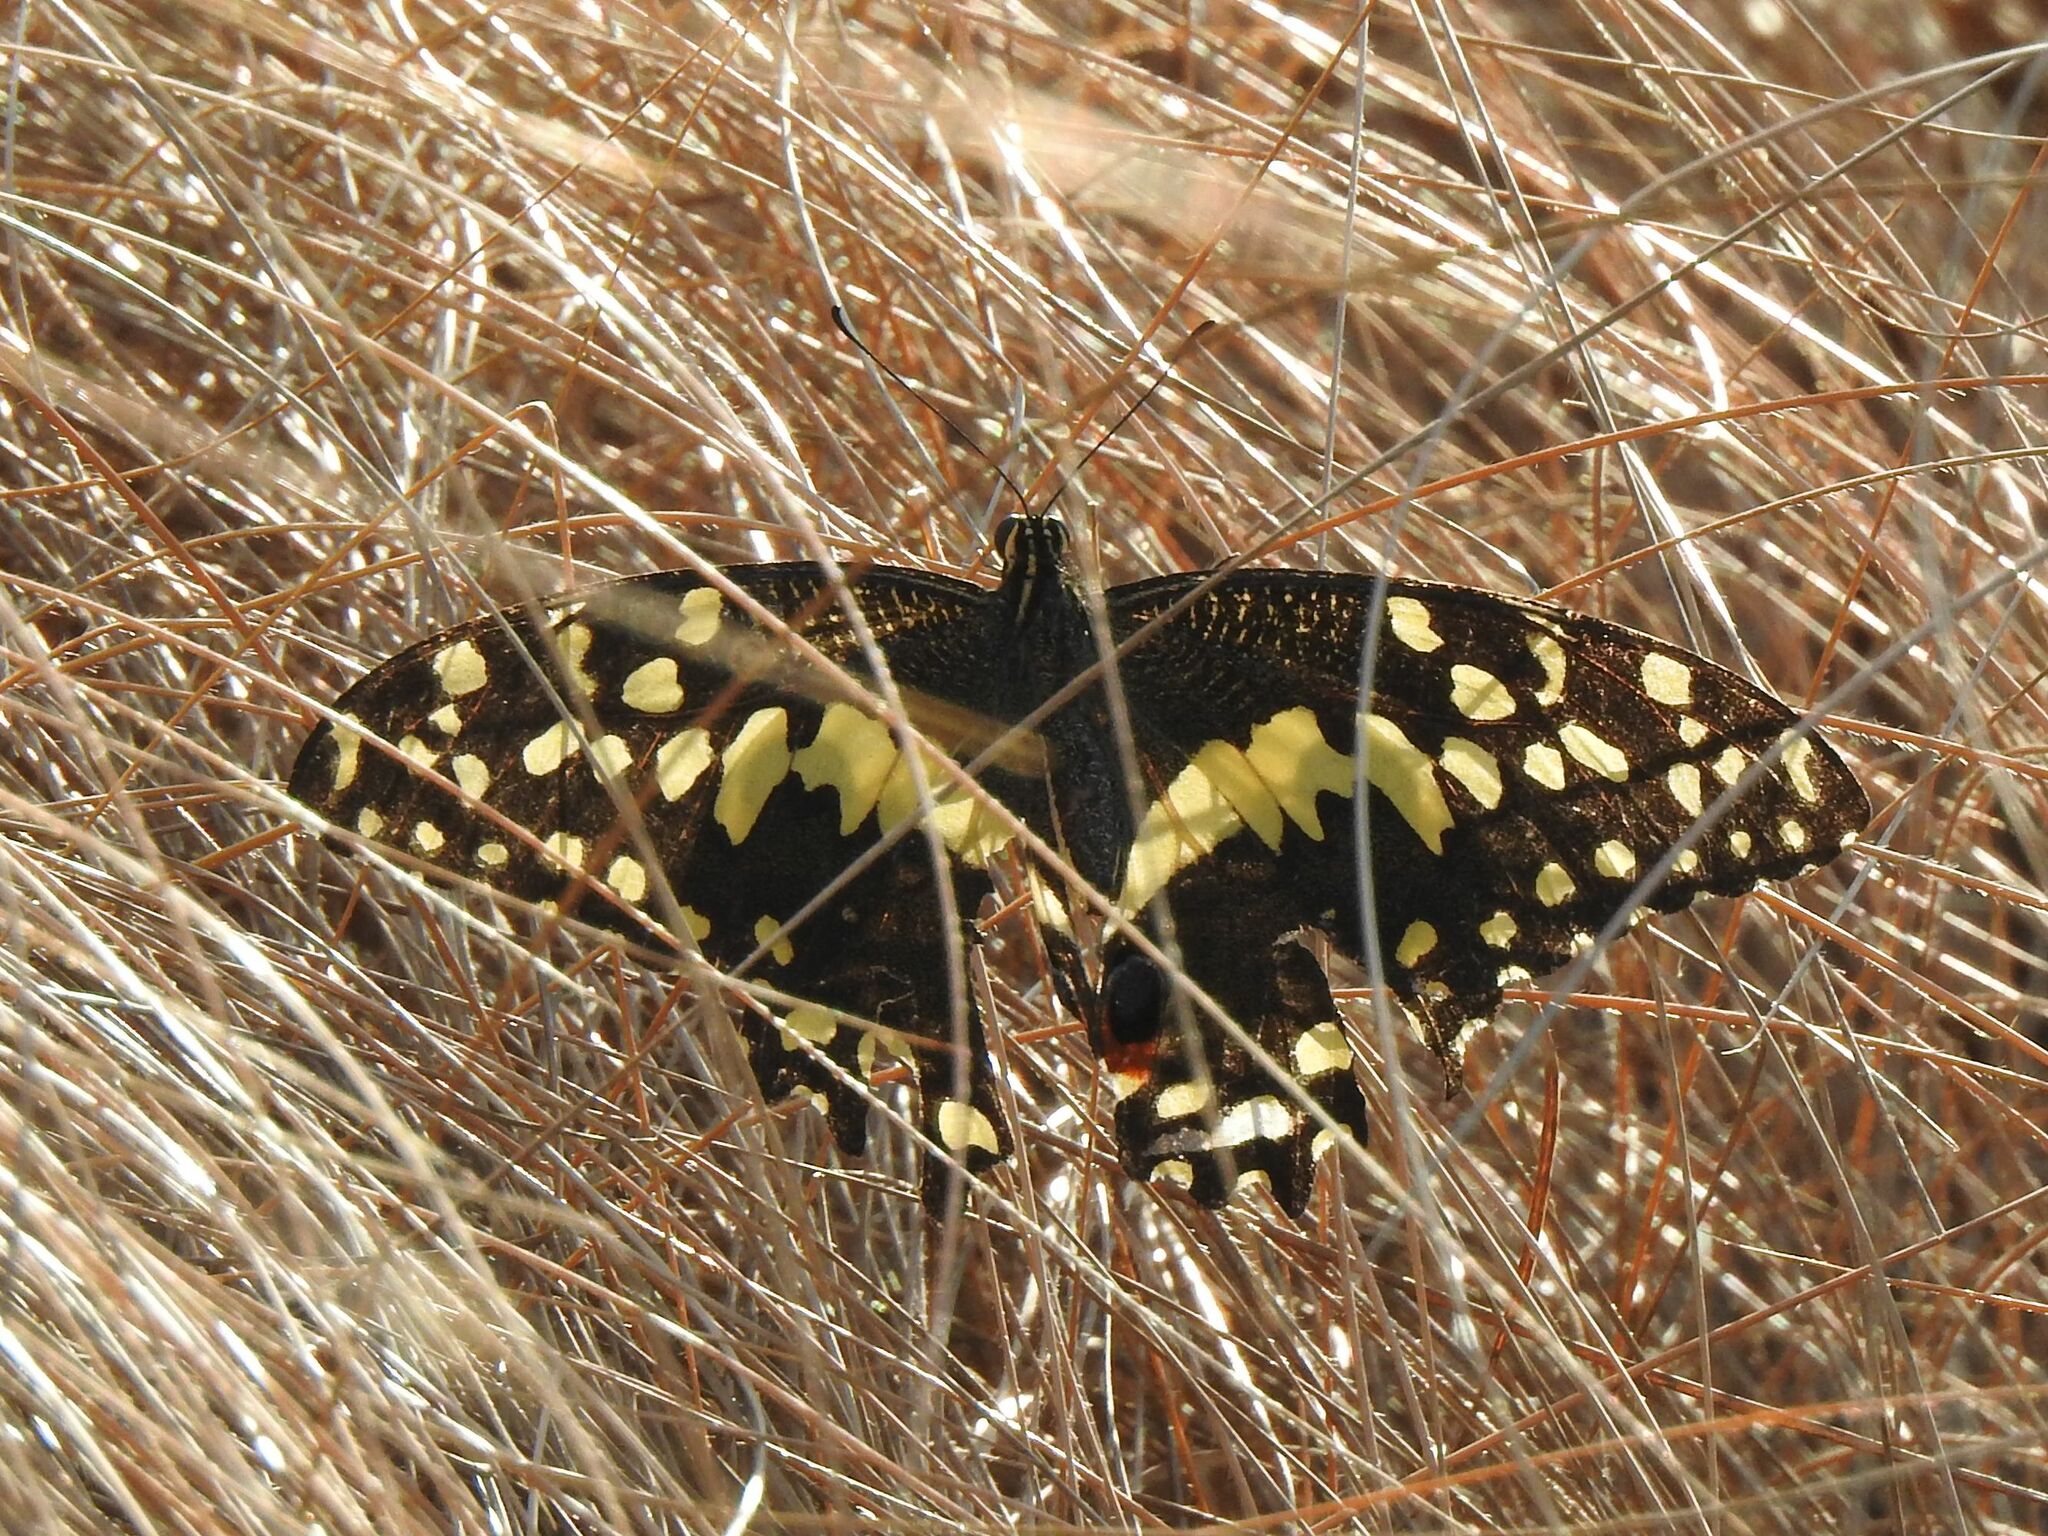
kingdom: Animalia
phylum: Arthropoda
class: Insecta
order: Lepidoptera
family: Papilionidae
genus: Papilio
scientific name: Papilio demodocus
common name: Christmas butterfly
